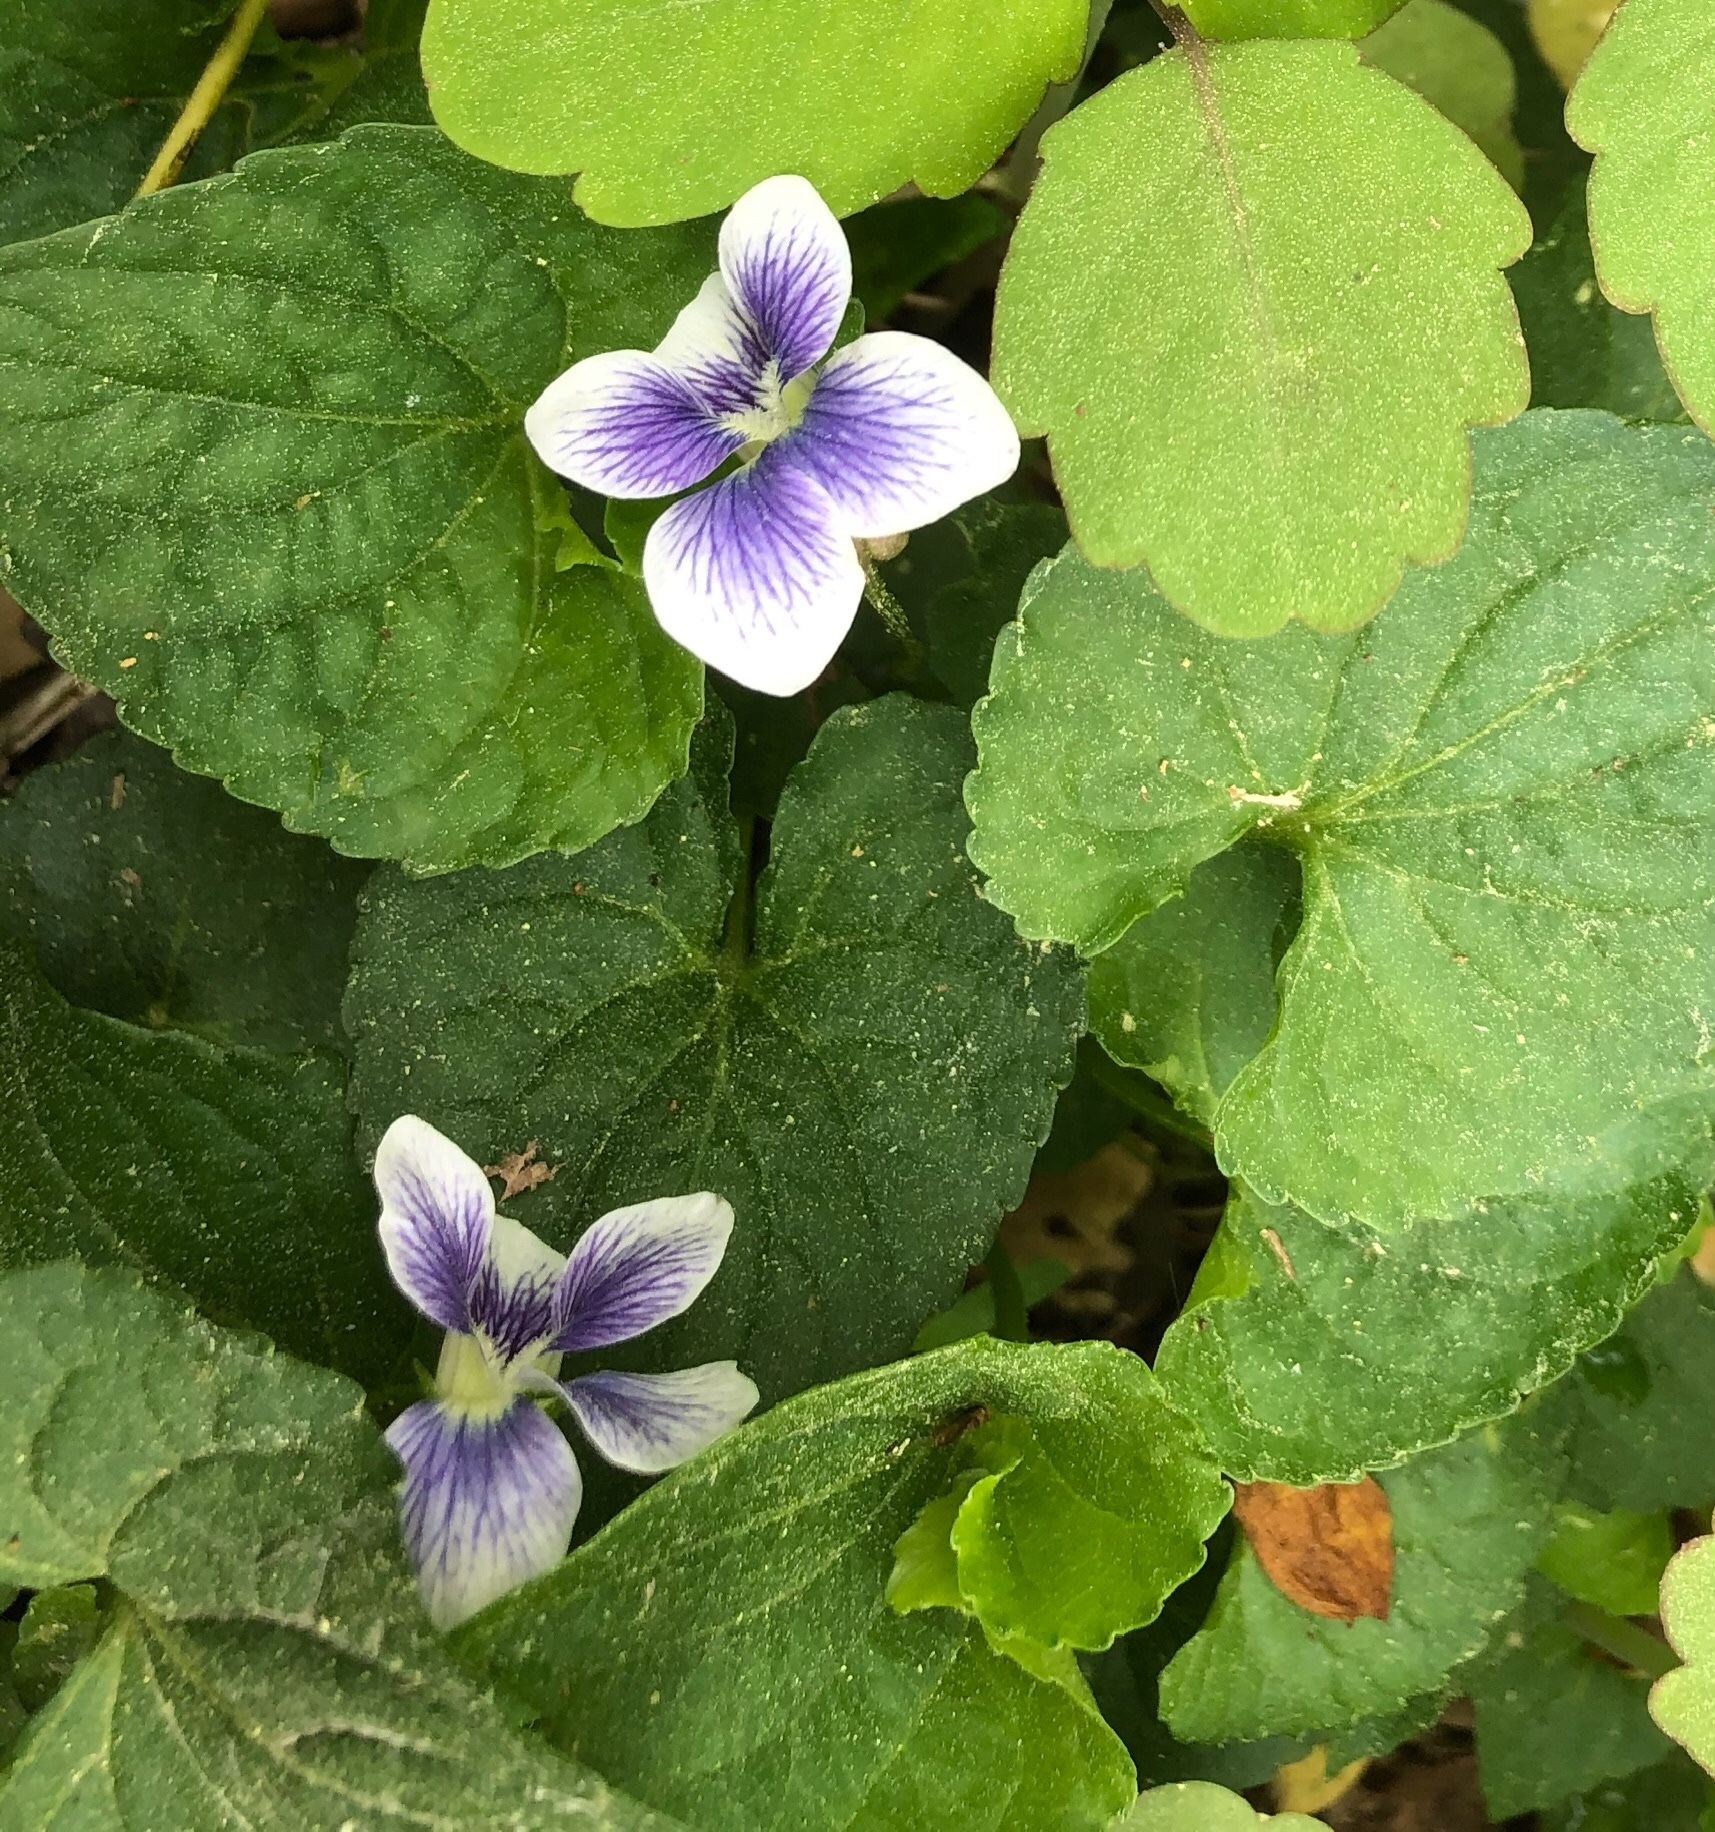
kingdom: Plantae
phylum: Tracheophyta
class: Magnoliopsida
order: Malpighiales
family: Violaceae
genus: Viola
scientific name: Viola sororia
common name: Dooryard violet
